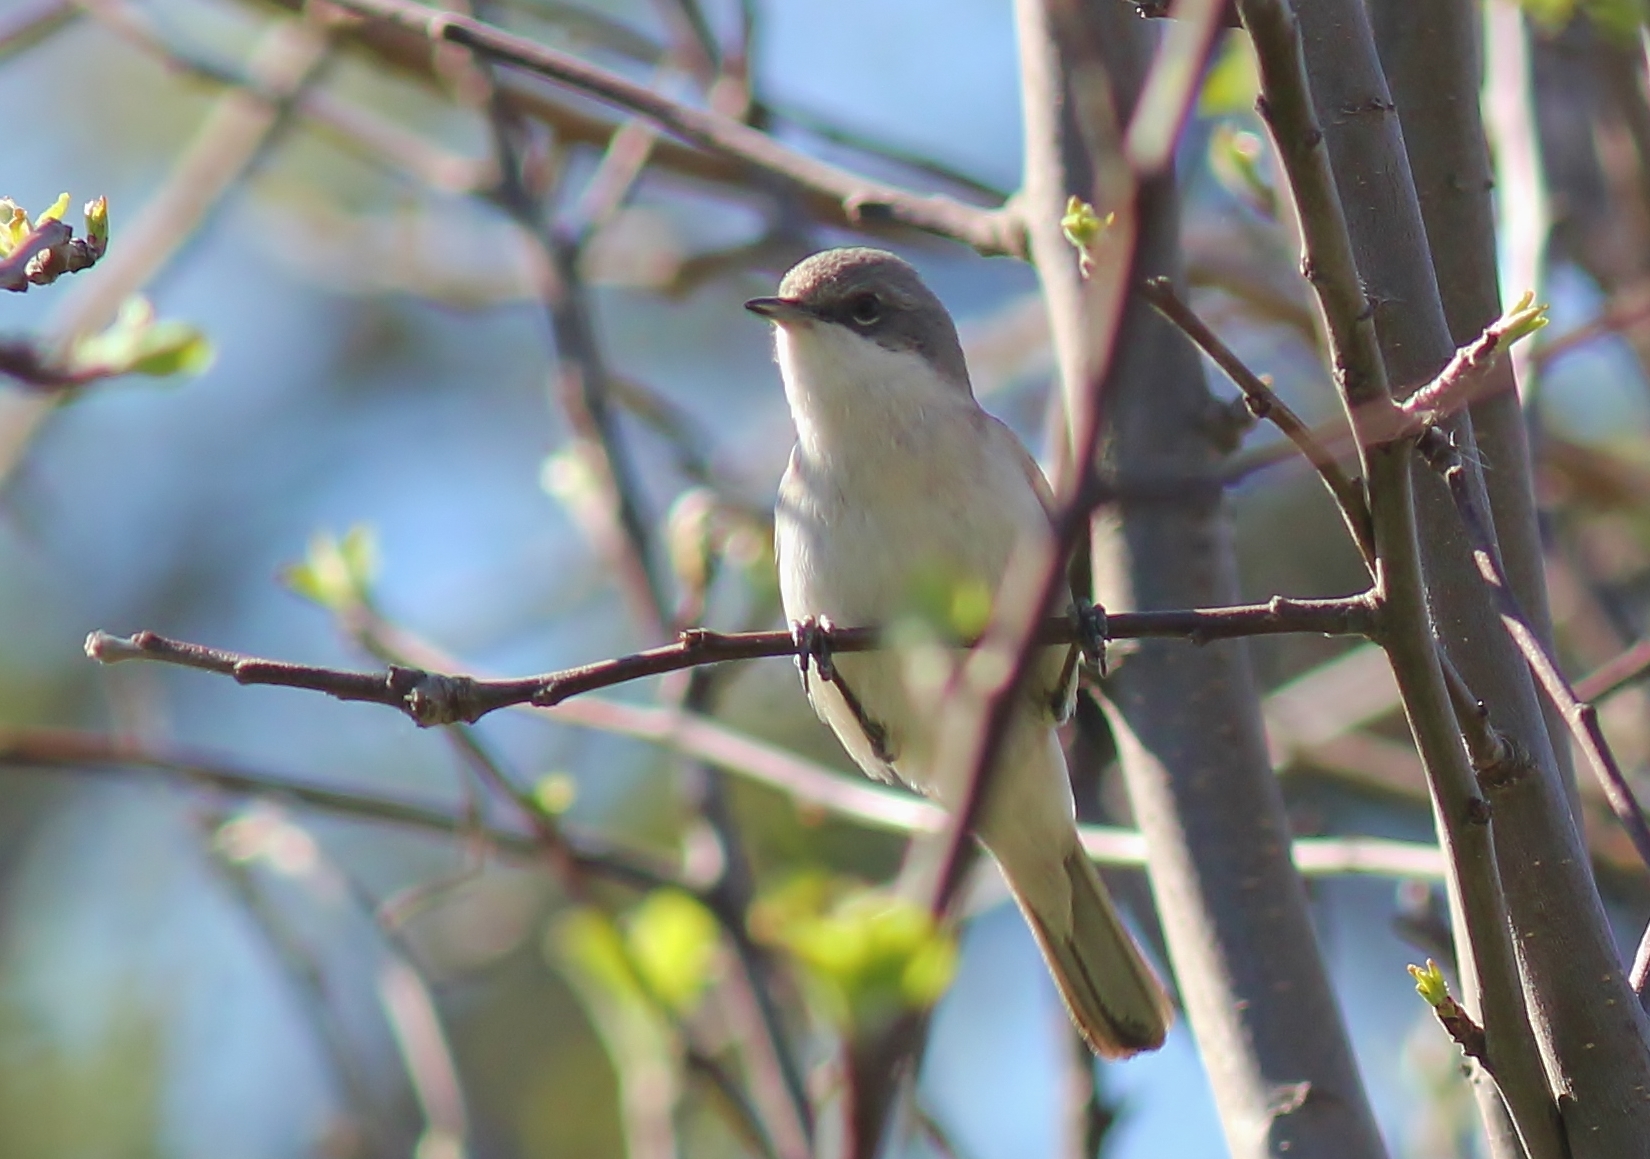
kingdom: Animalia
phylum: Chordata
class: Aves
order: Passeriformes
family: Sylviidae
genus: Sylvia
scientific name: Sylvia curruca
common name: Lesser whitethroat
